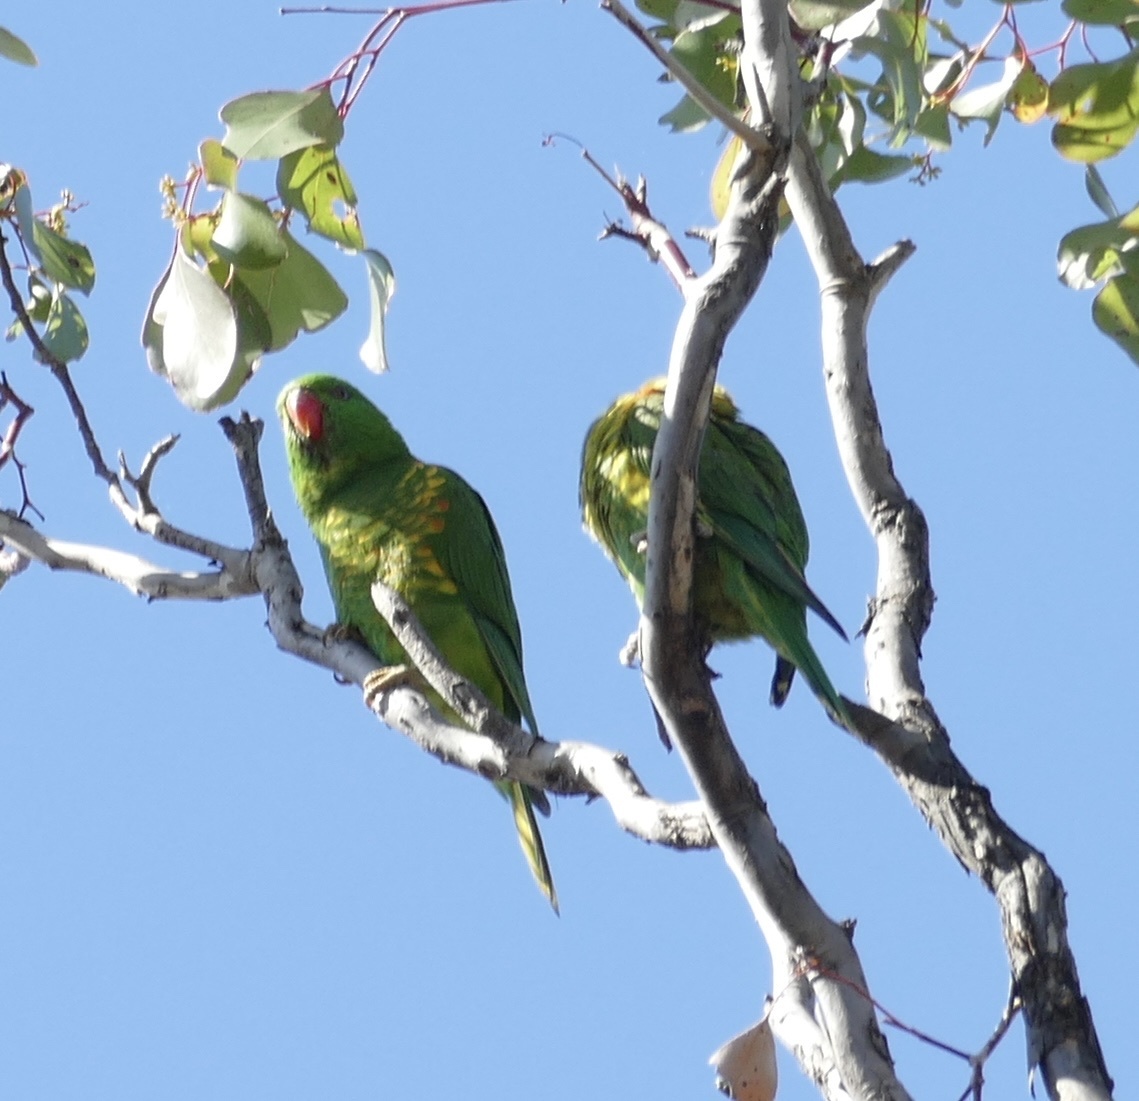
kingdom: Animalia
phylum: Chordata
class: Aves
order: Psittaciformes
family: Psittacidae
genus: Trichoglossus
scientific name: Trichoglossus chlorolepidotus
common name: Scaly-breasted lorikeet
